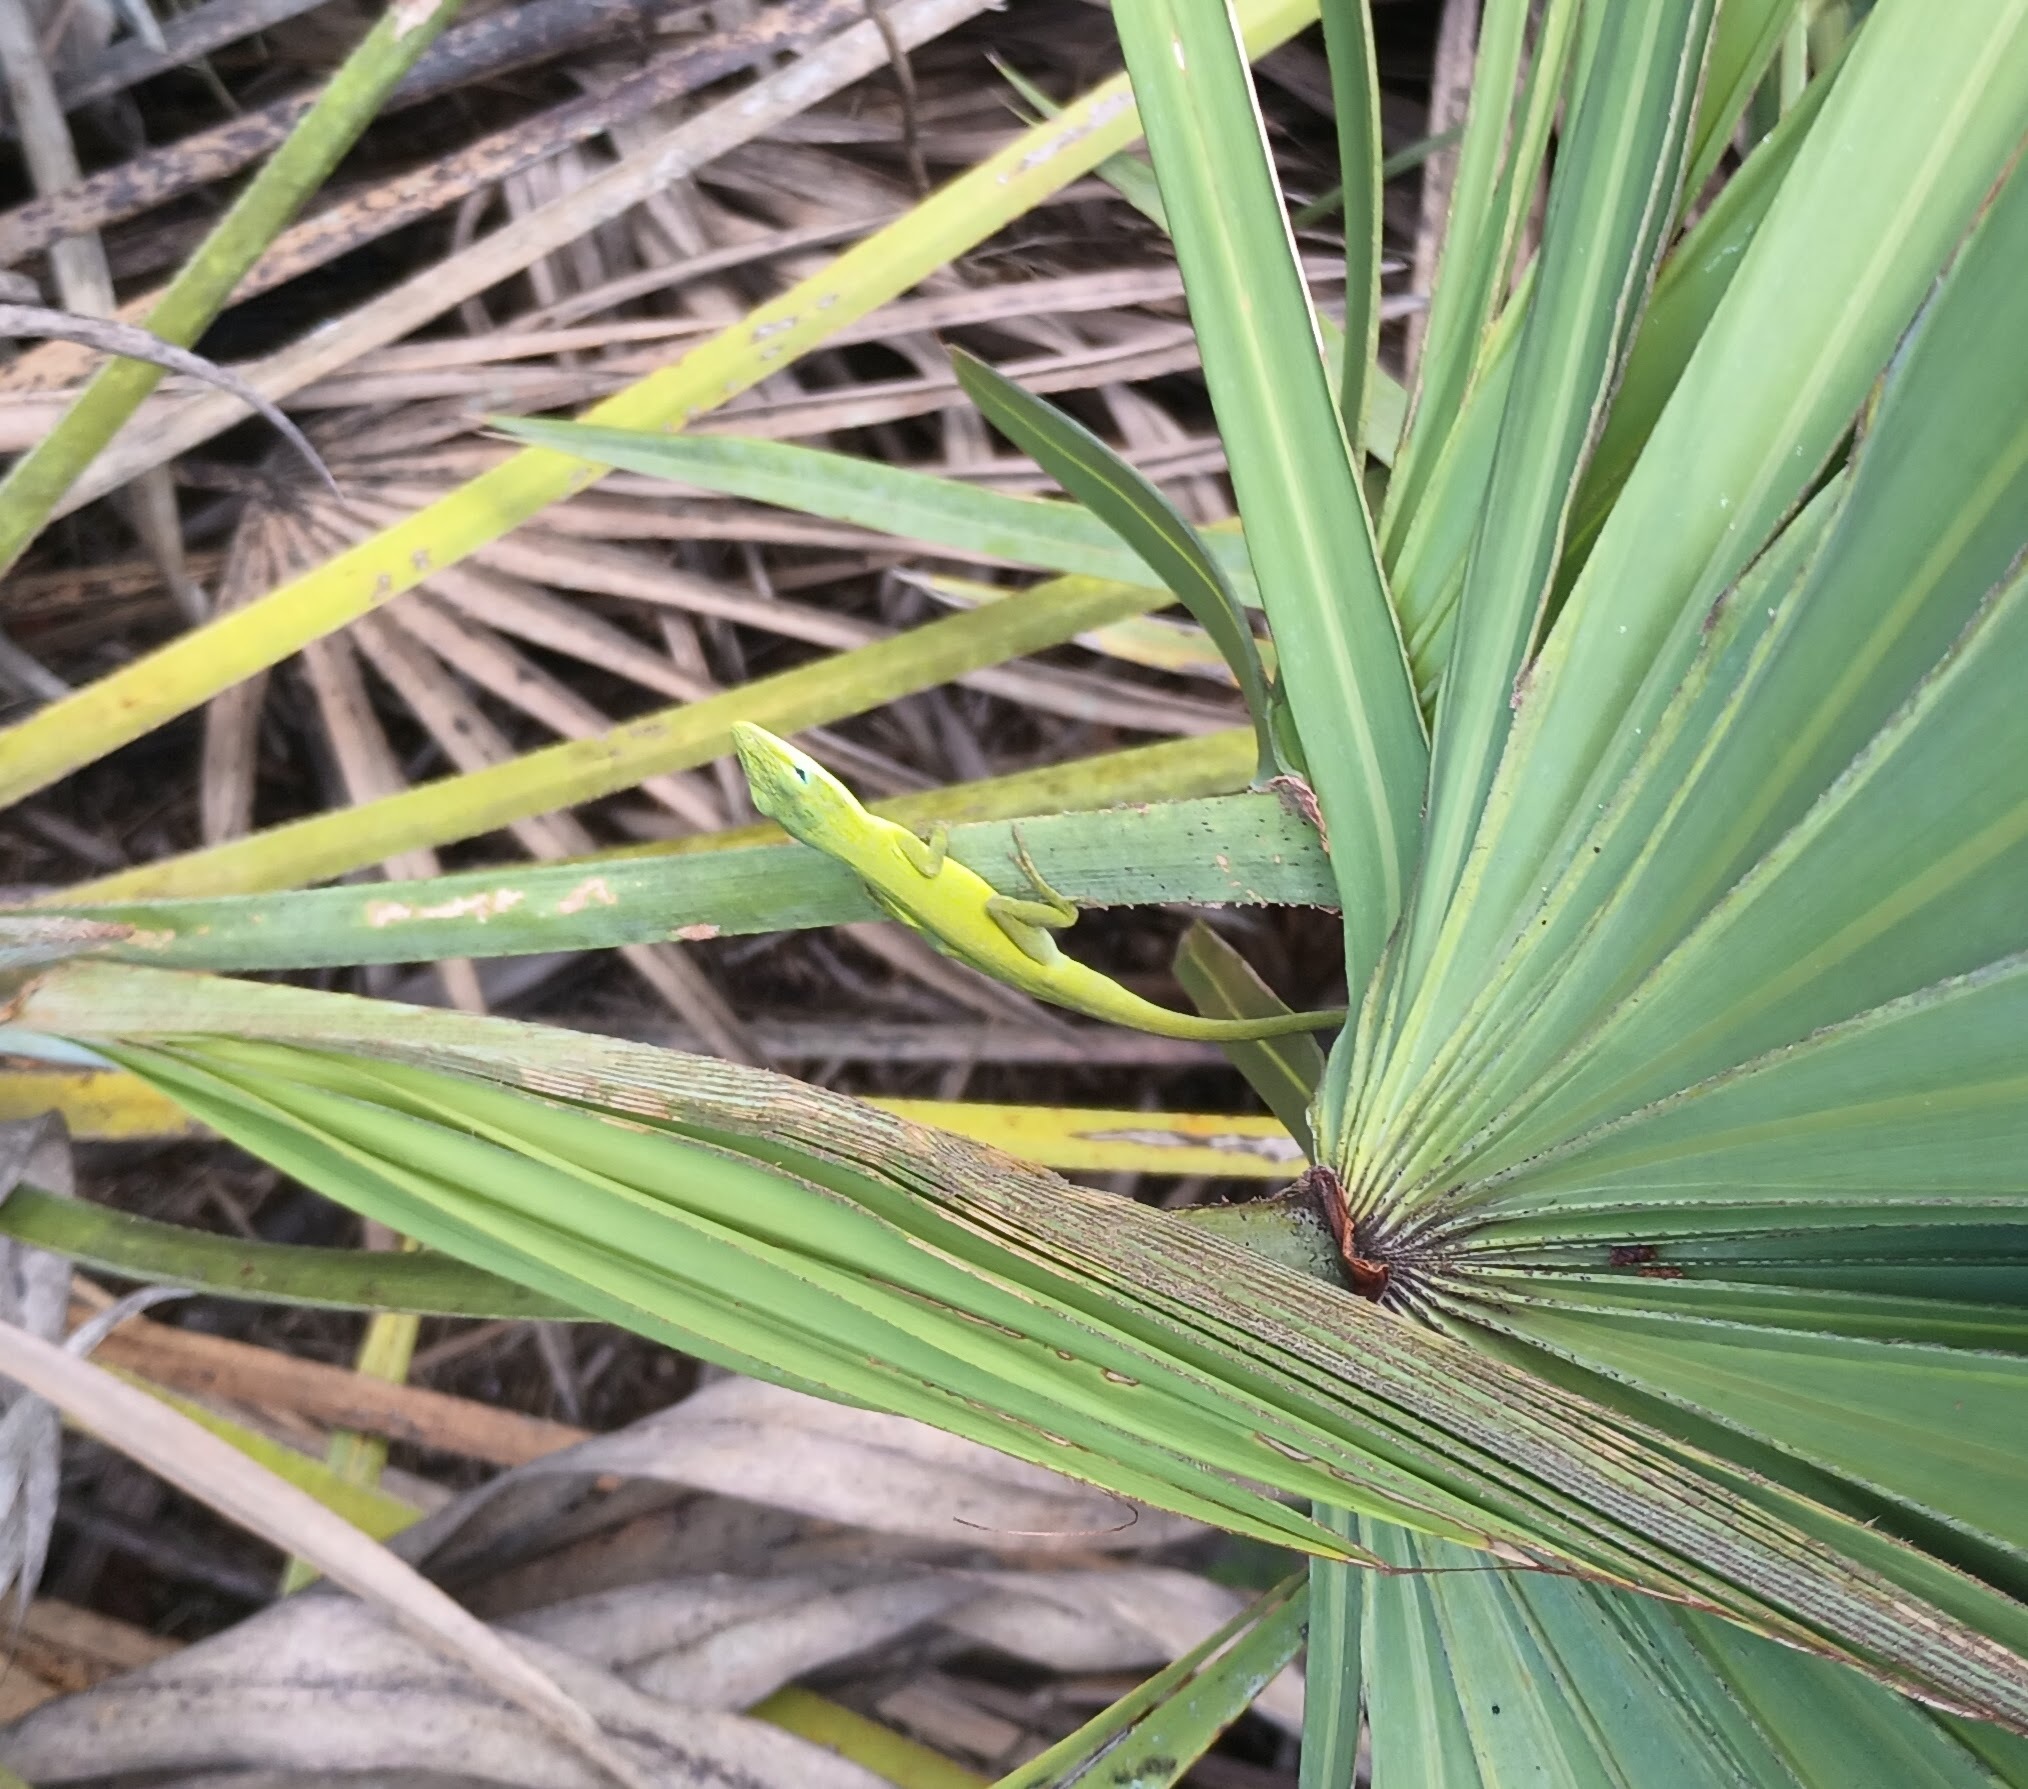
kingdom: Animalia
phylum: Chordata
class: Squamata
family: Dactyloidae
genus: Anolis
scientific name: Anolis carolinensis
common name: Green anole
